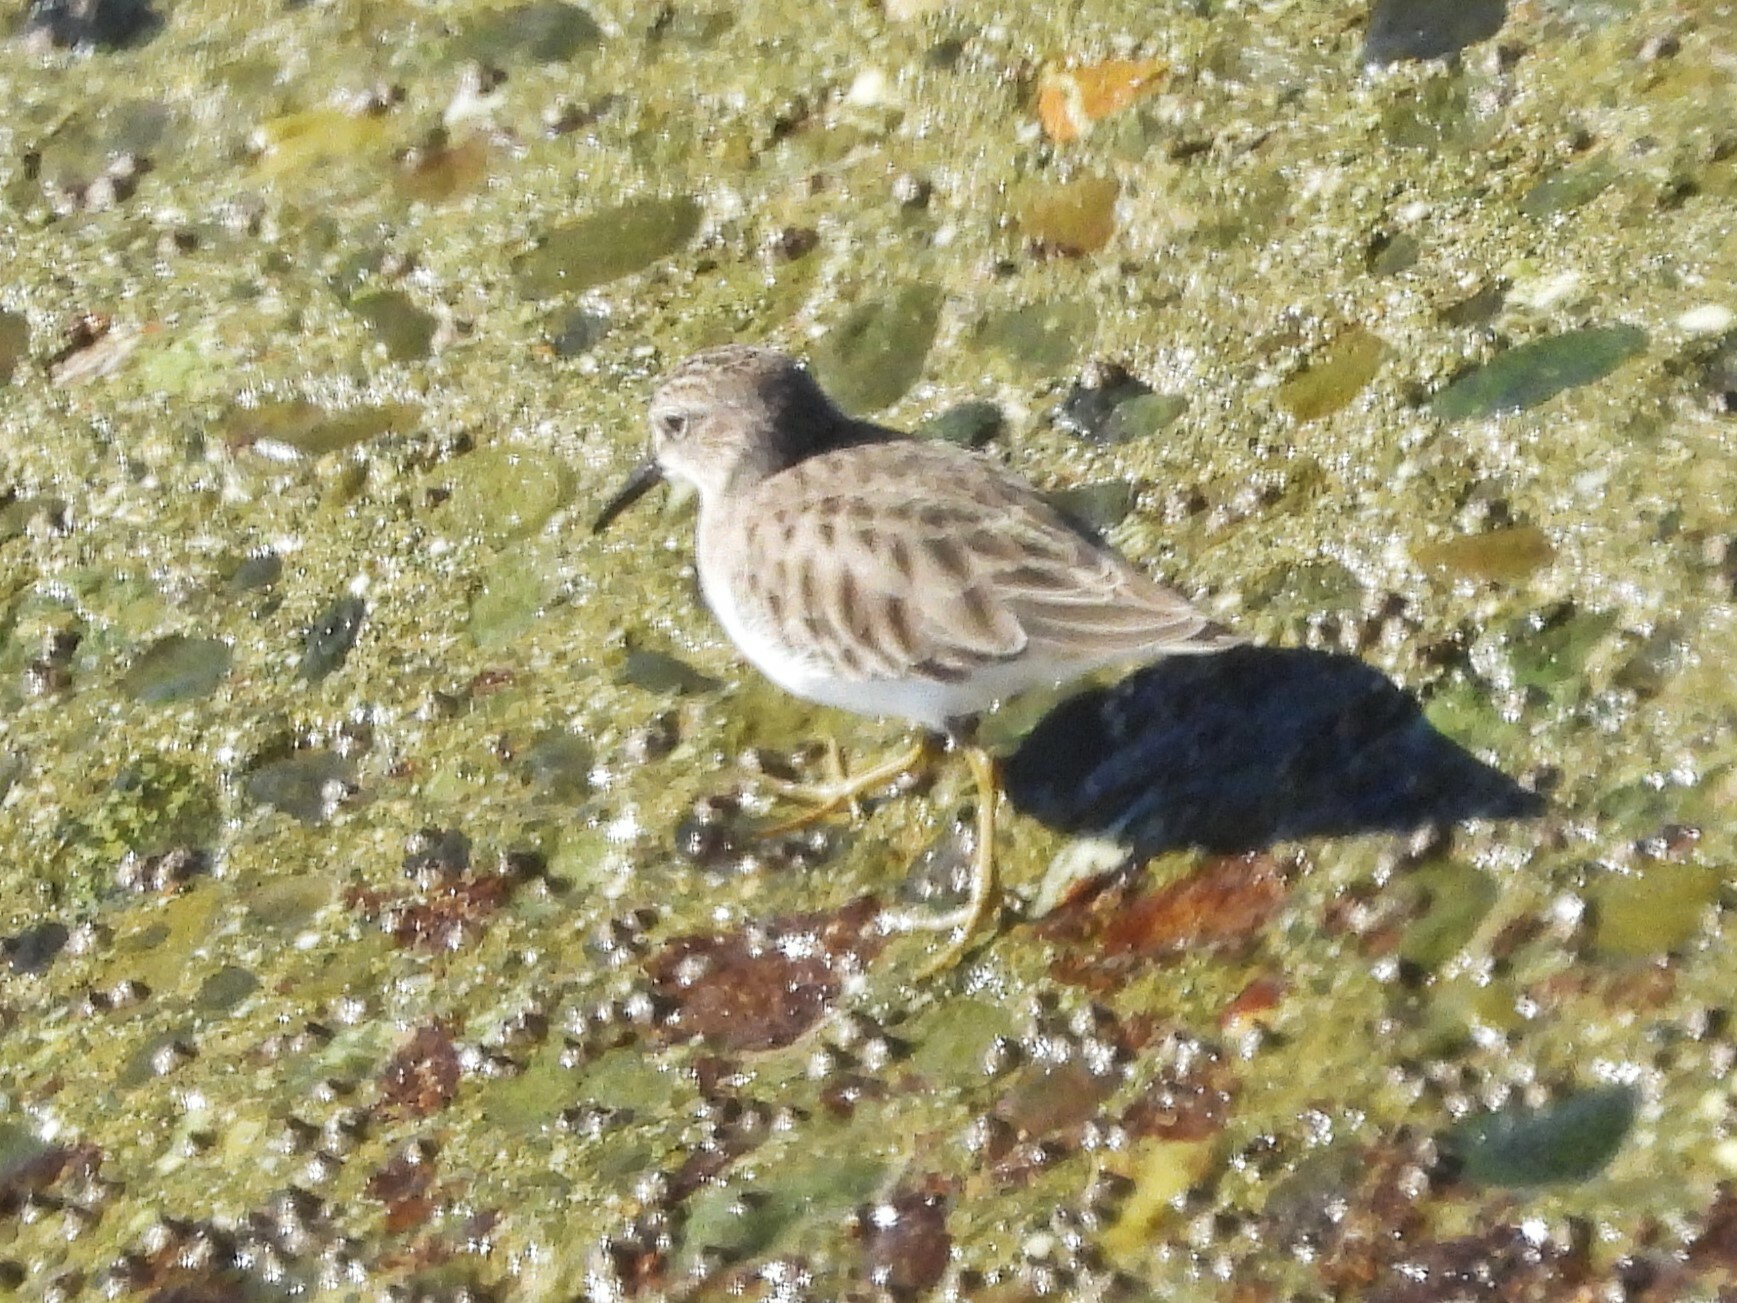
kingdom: Animalia
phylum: Chordata
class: Aves
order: Charadriiformes
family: Scolopacidae
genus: Calidris
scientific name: Calidris minutilla
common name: Least sandpiper
